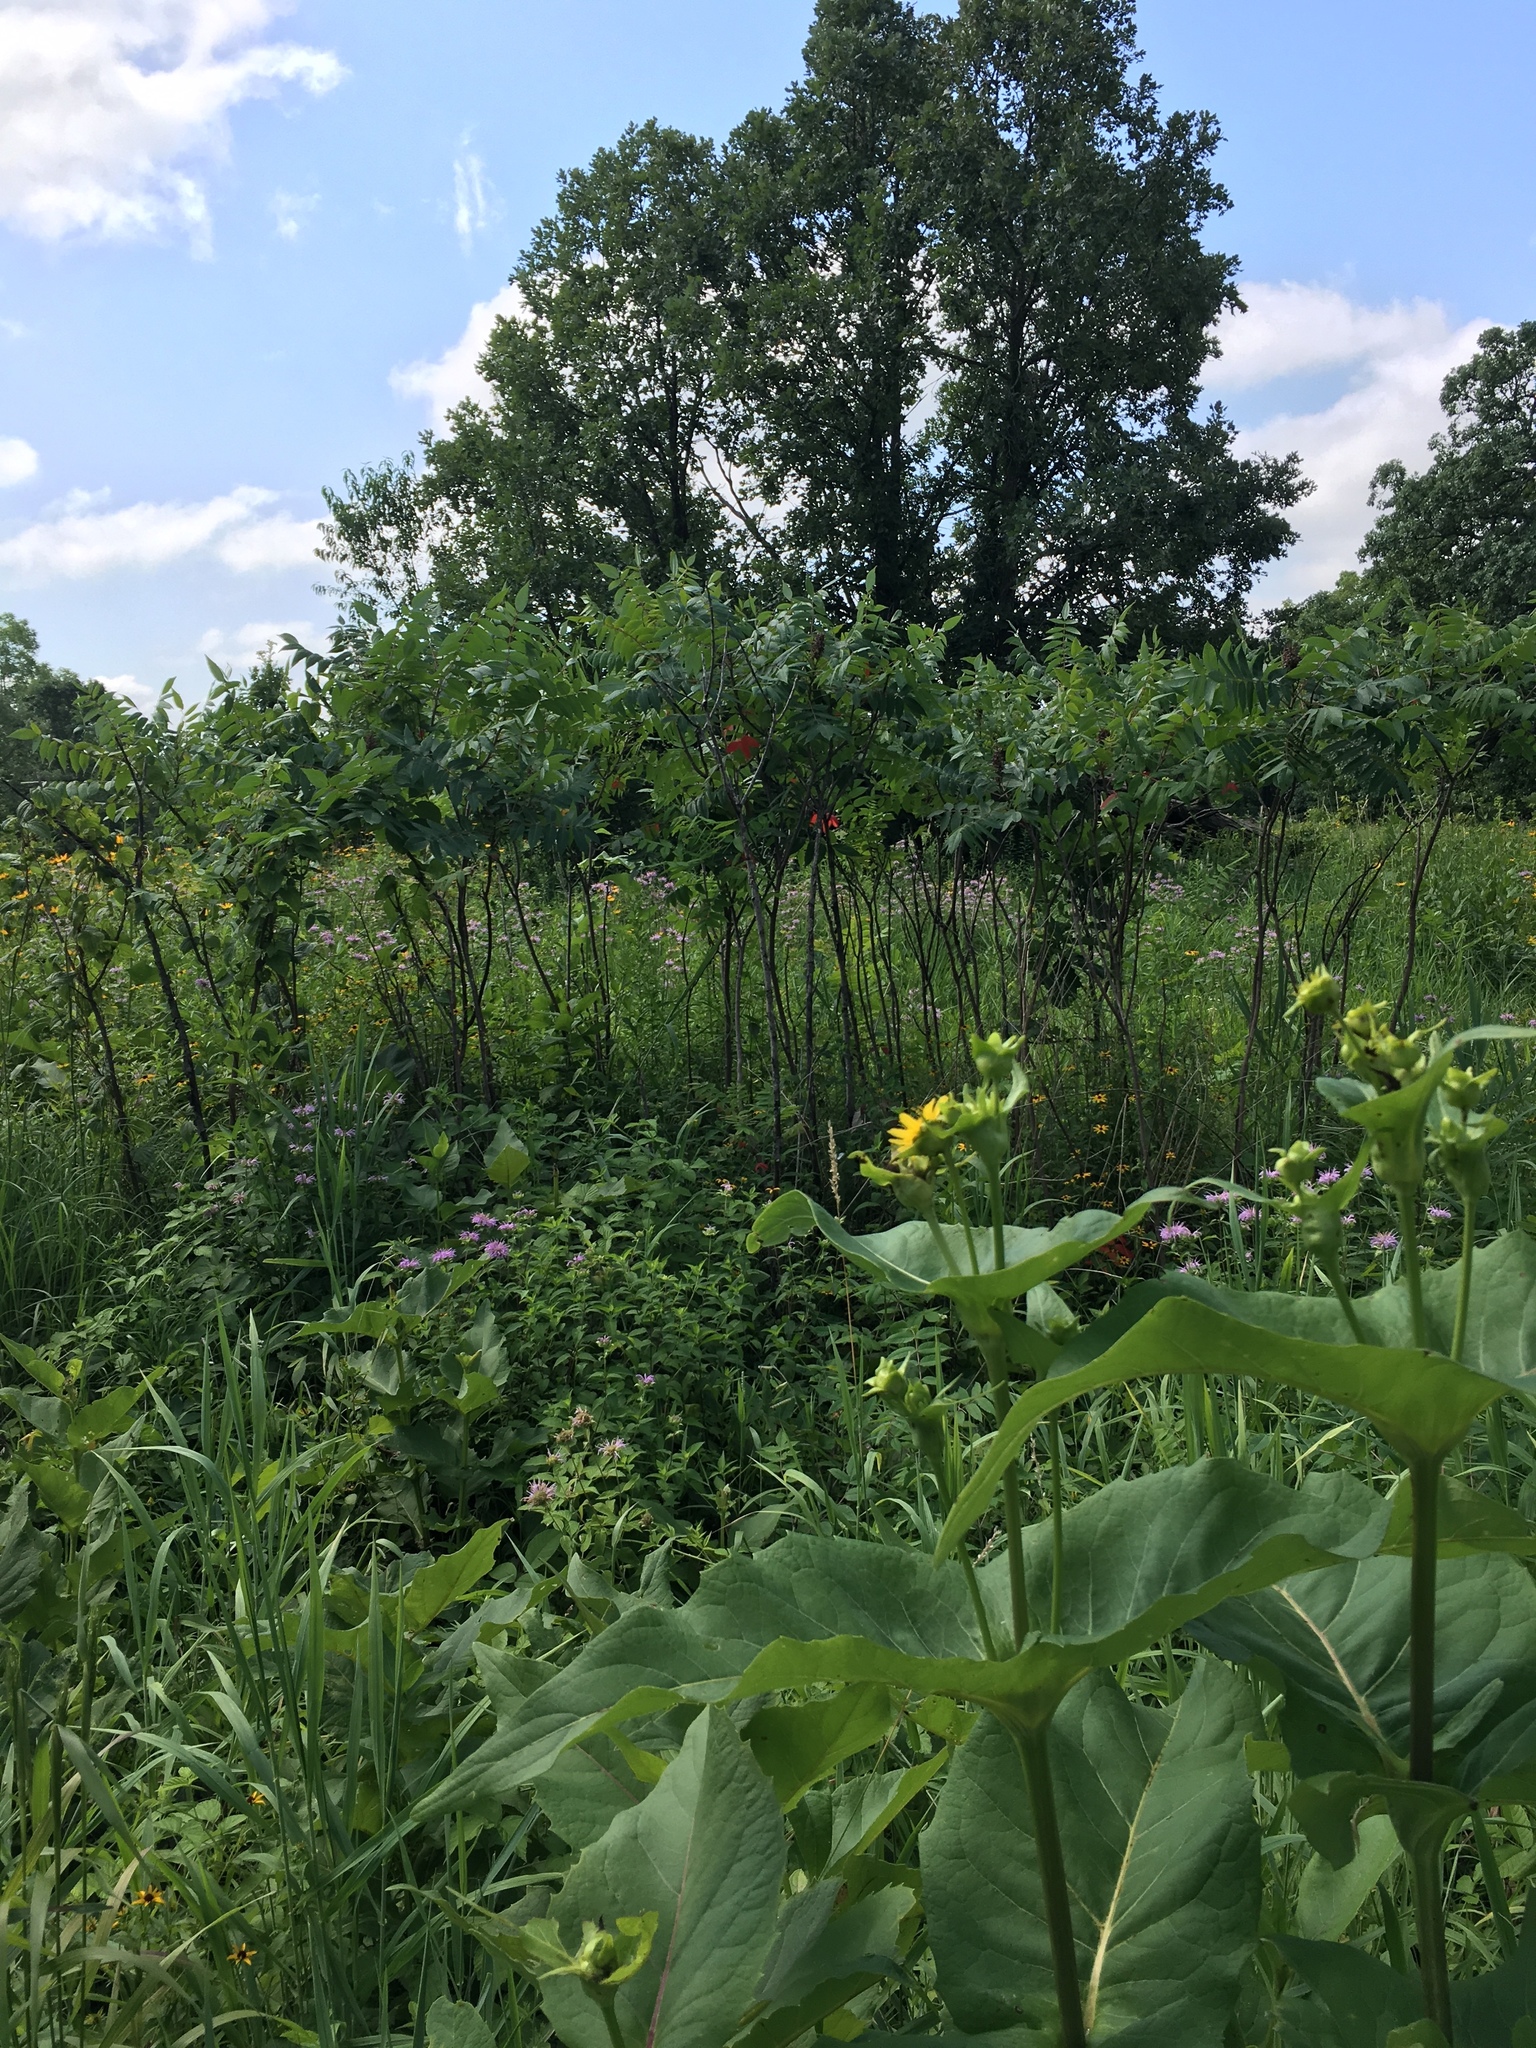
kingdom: Plantae
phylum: Tracheophyta
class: Magnoliopsida
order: Asterales
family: Asteraceae
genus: Silphium
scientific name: Silphium perfoliatum
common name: Cup-plant
